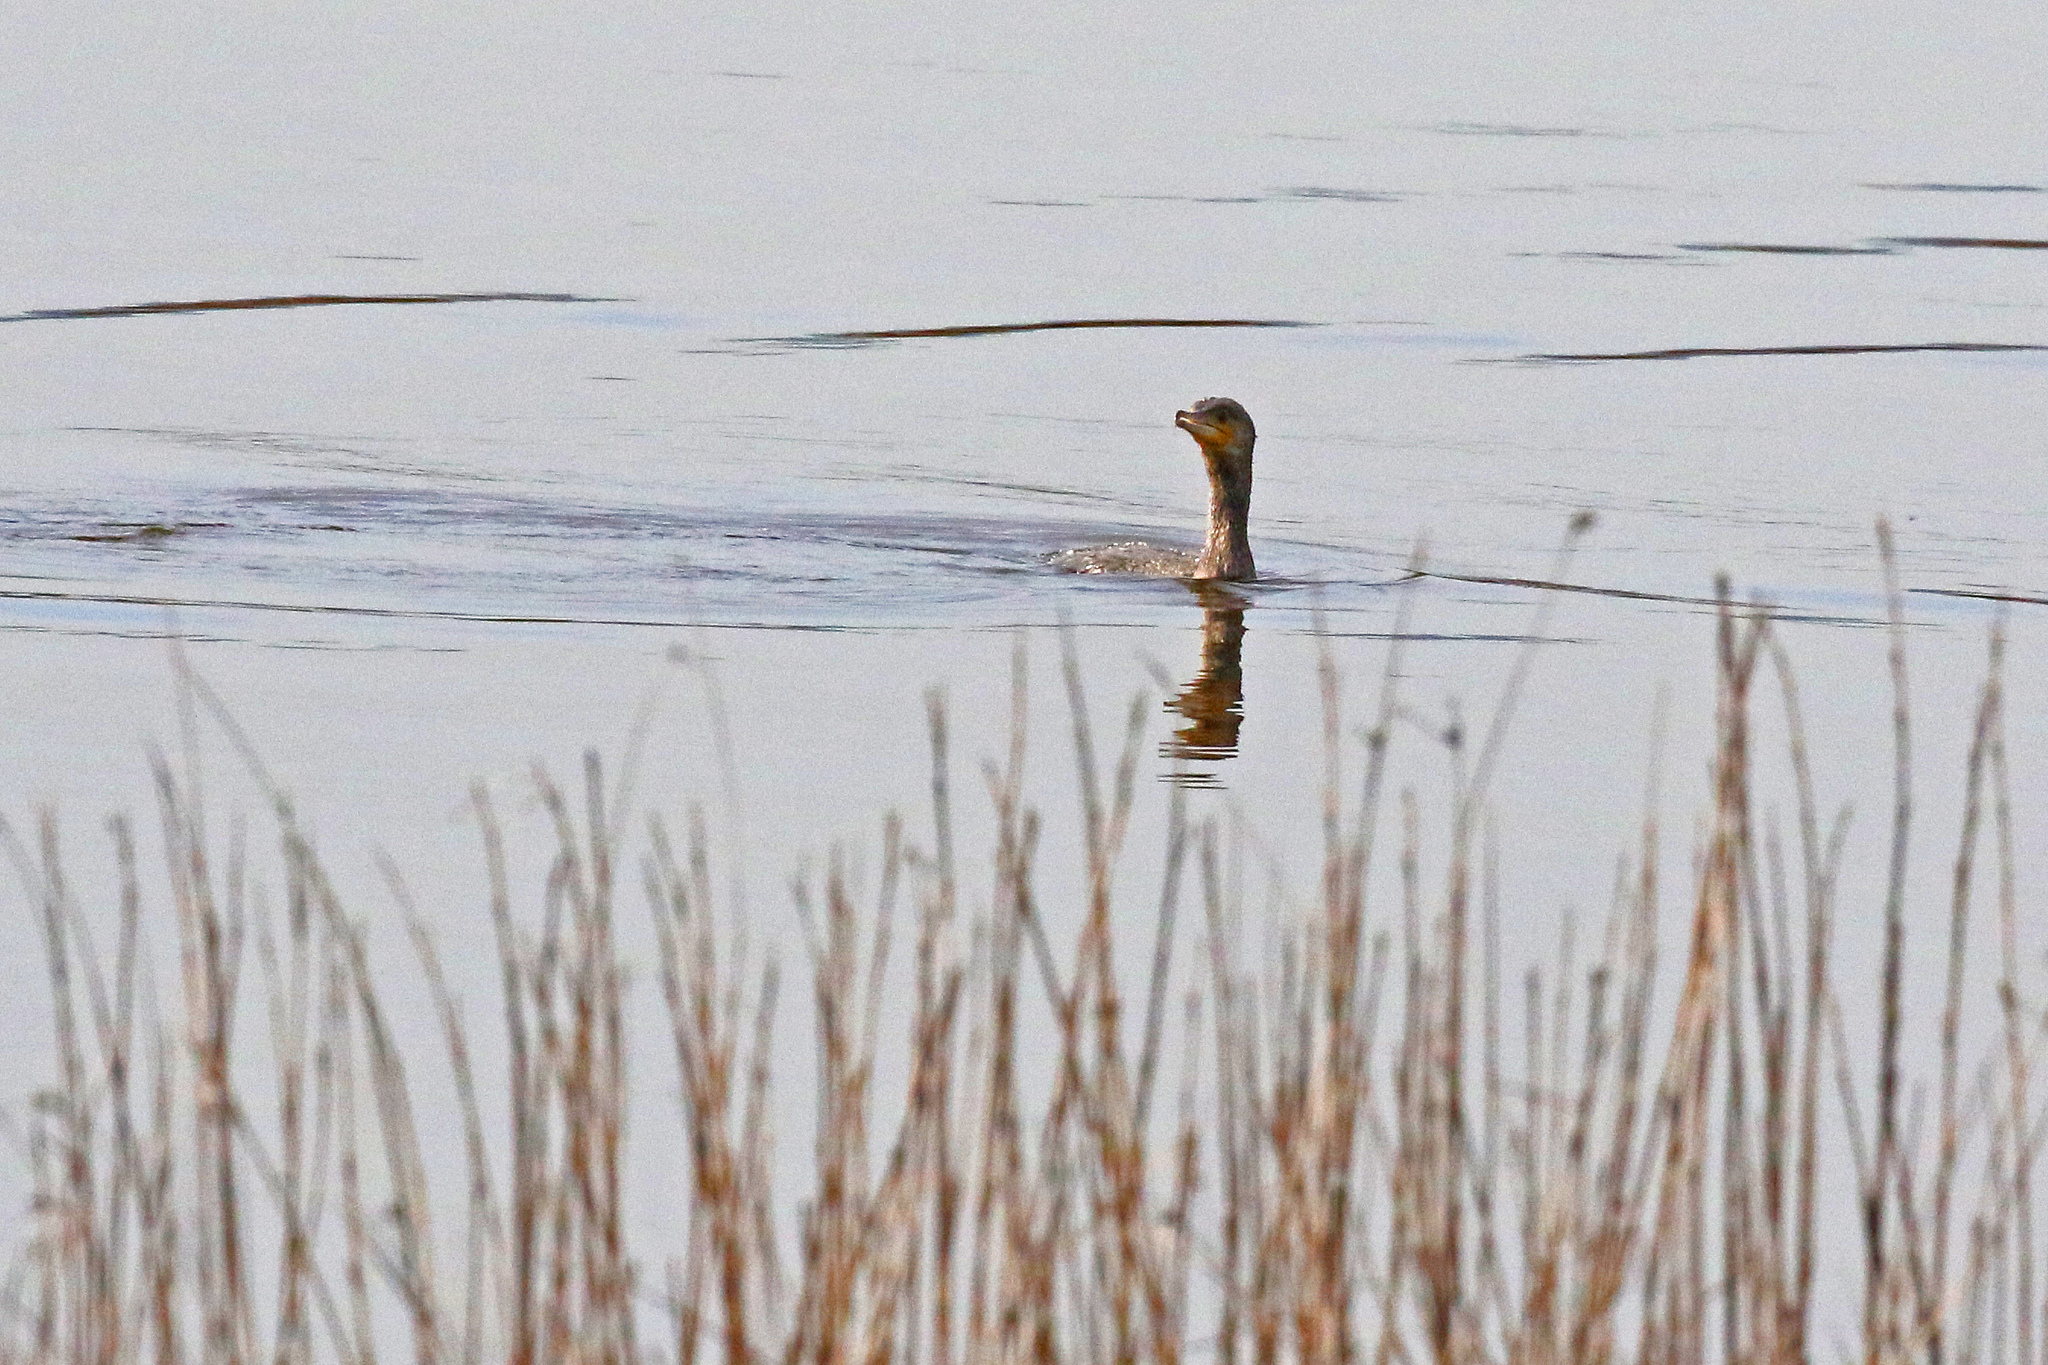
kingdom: Animalia
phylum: Chordata
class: Aves
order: Suliformes
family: Phalacrocoracidae
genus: Phalacrocorax
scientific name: Phalacrocorax carbo
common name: Great cormorant
